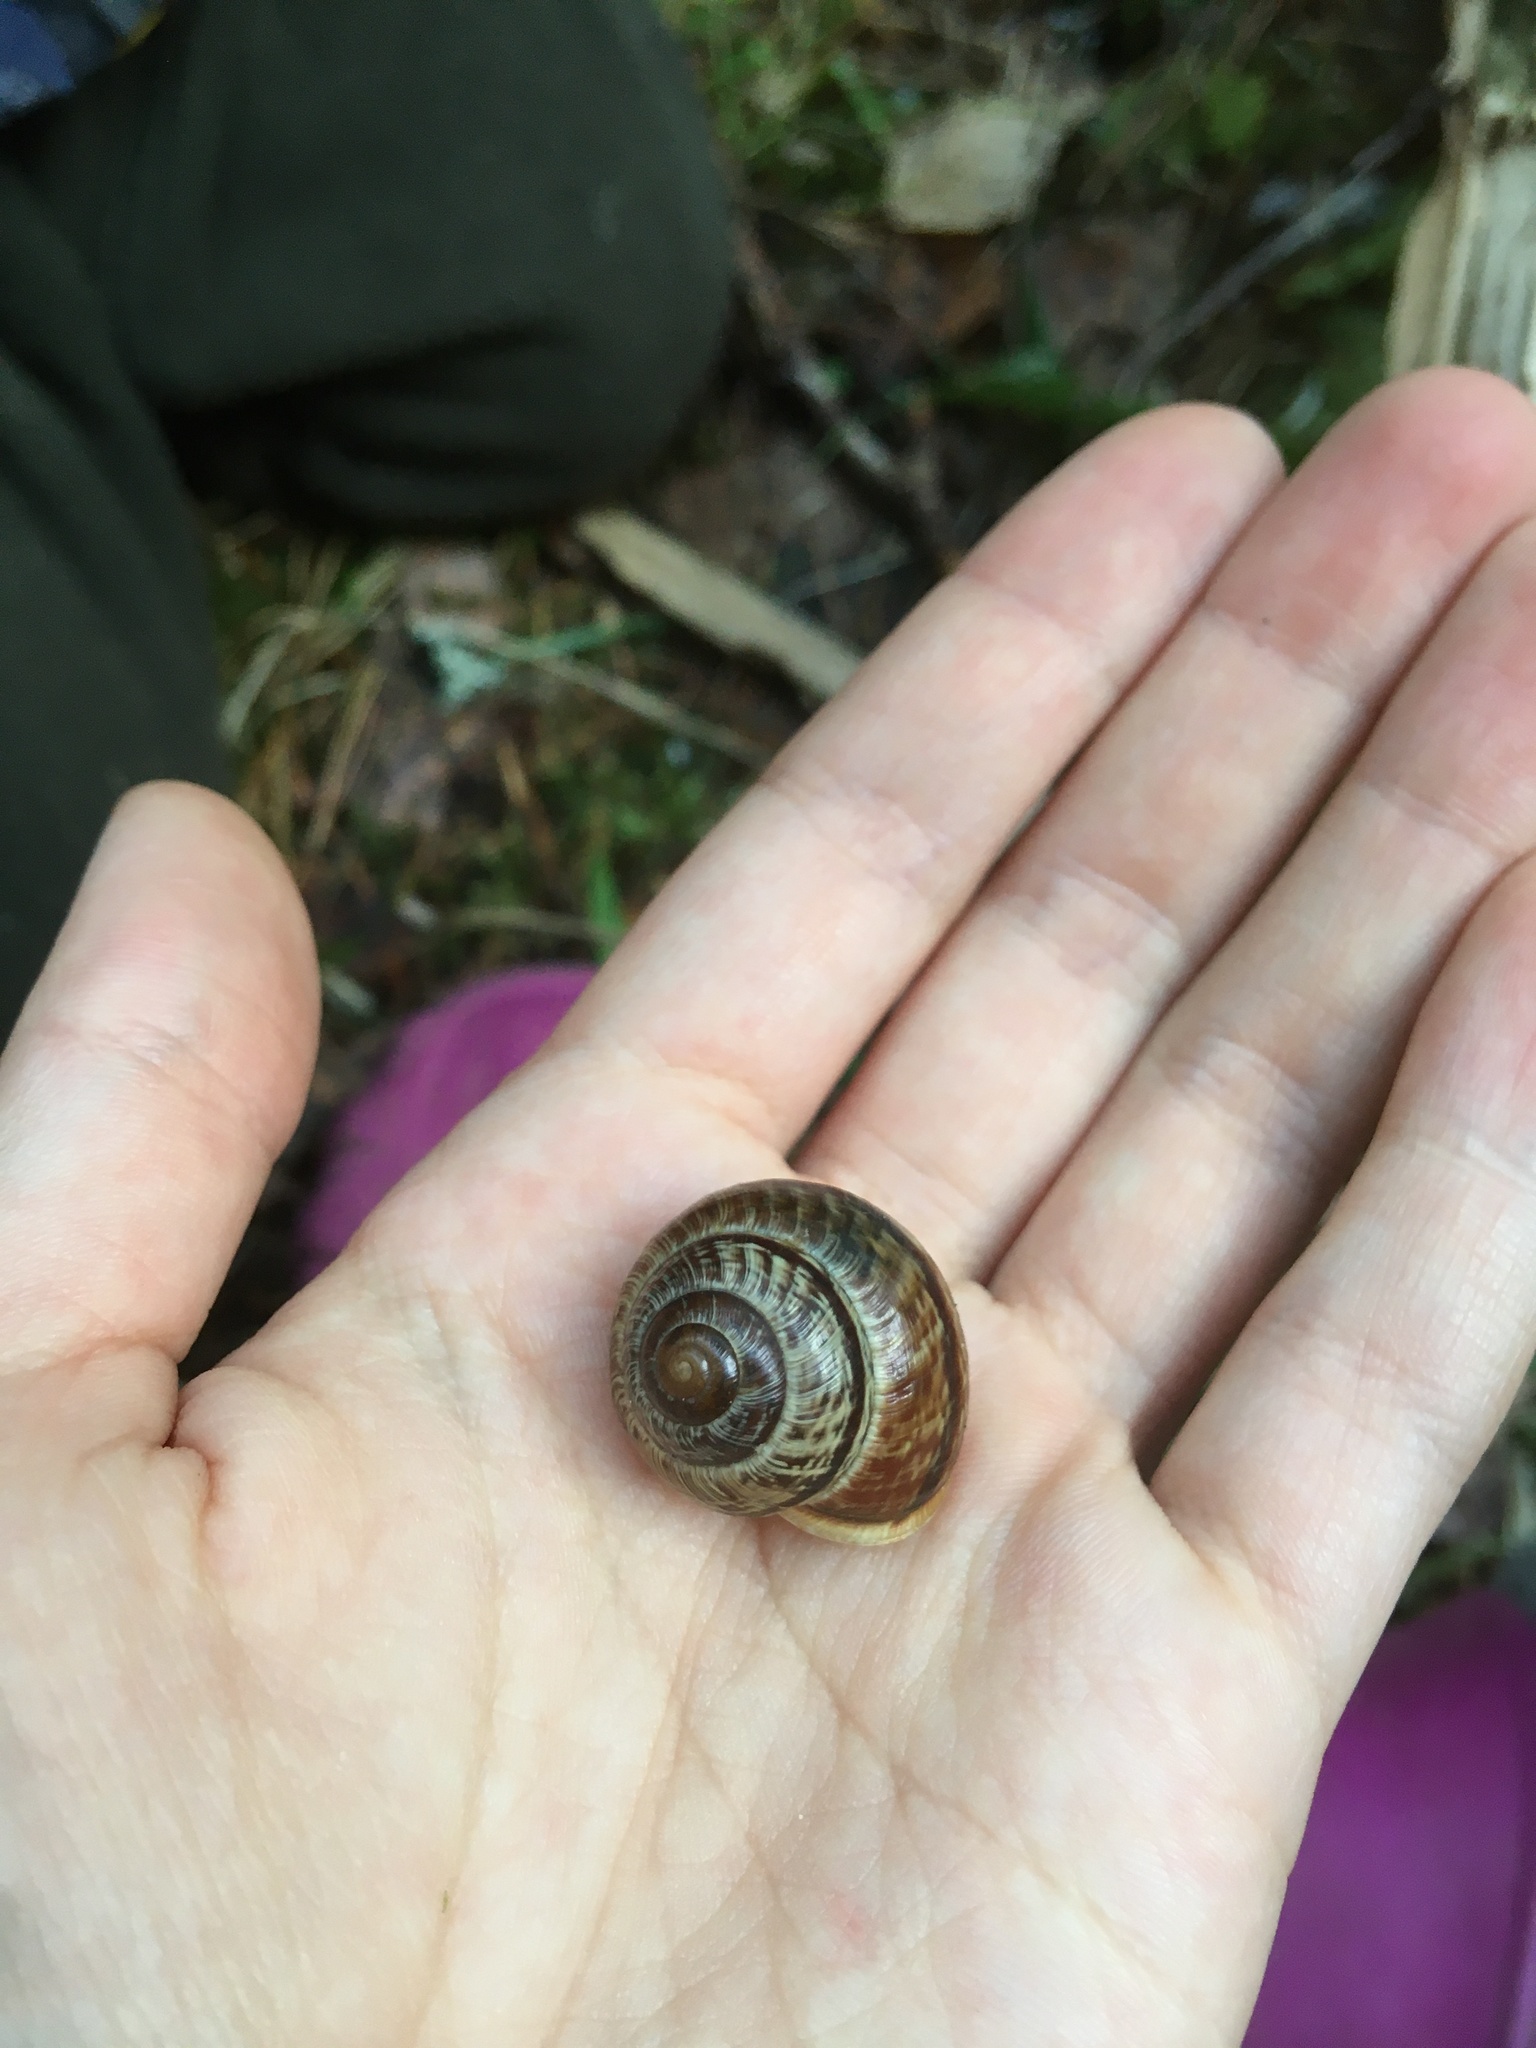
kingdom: Animalia
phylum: Mollusca
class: Gastropoda
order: Stylommatophora
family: Helicidae
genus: Arianta
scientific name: Arianta arbustorum
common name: Copse snail
